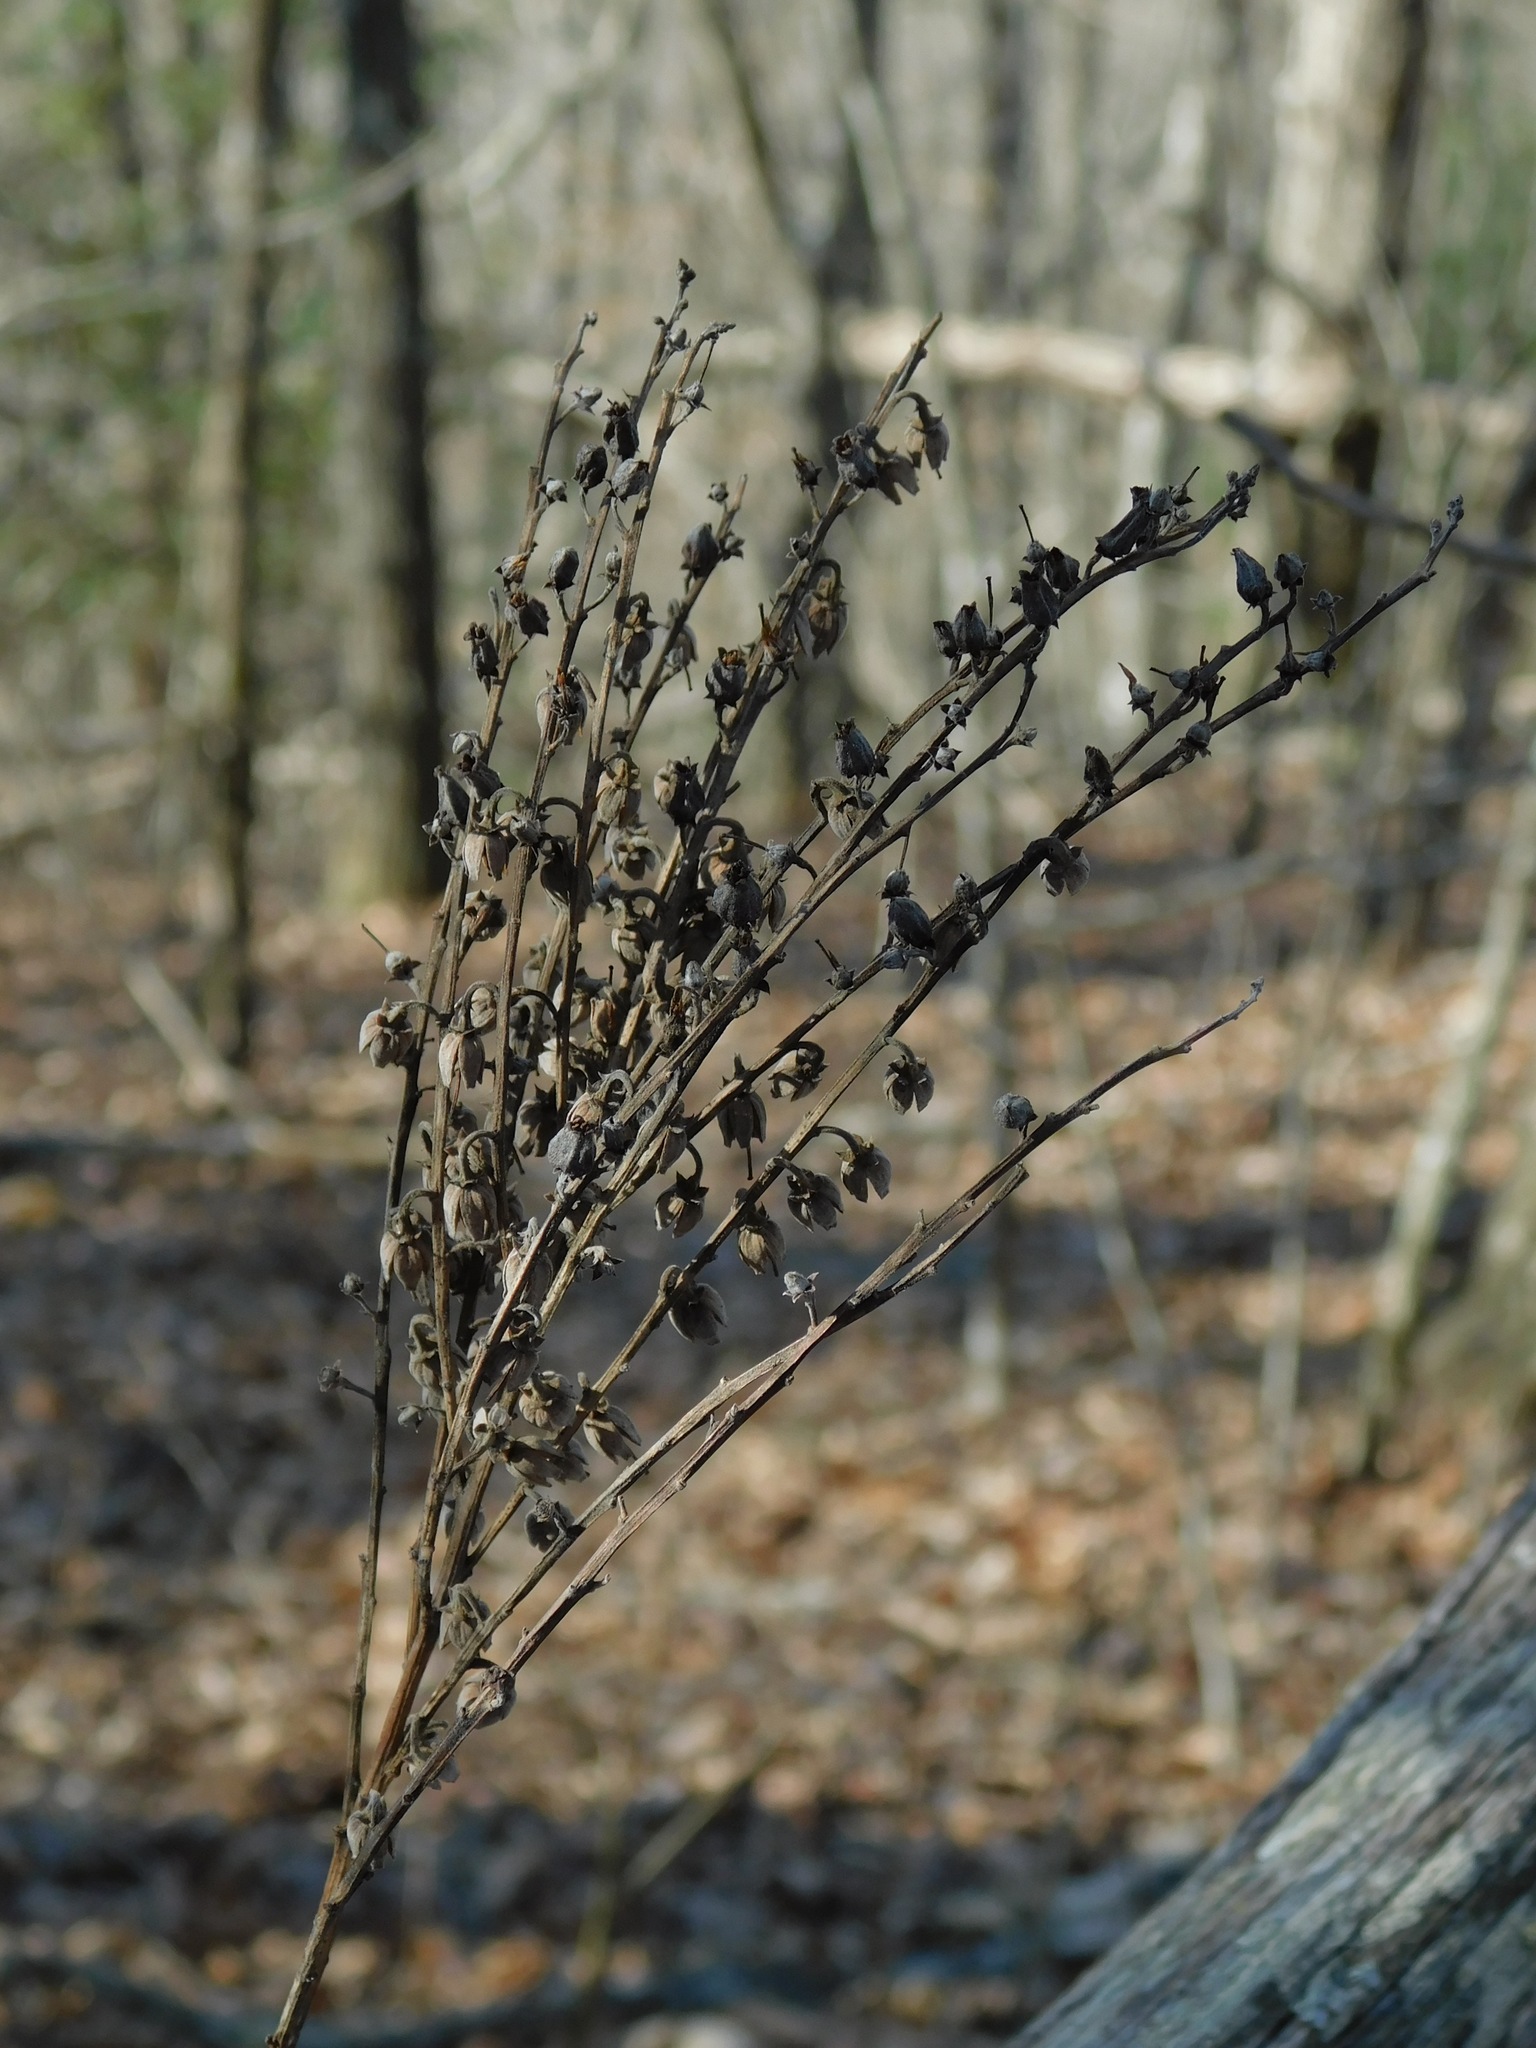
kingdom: Plantae
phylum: Tracheophyta
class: Magnoliopsida
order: Ericales
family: Ericaceae
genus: Oxydendrum
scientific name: Oxydendrum arboreum
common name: Sourwood
